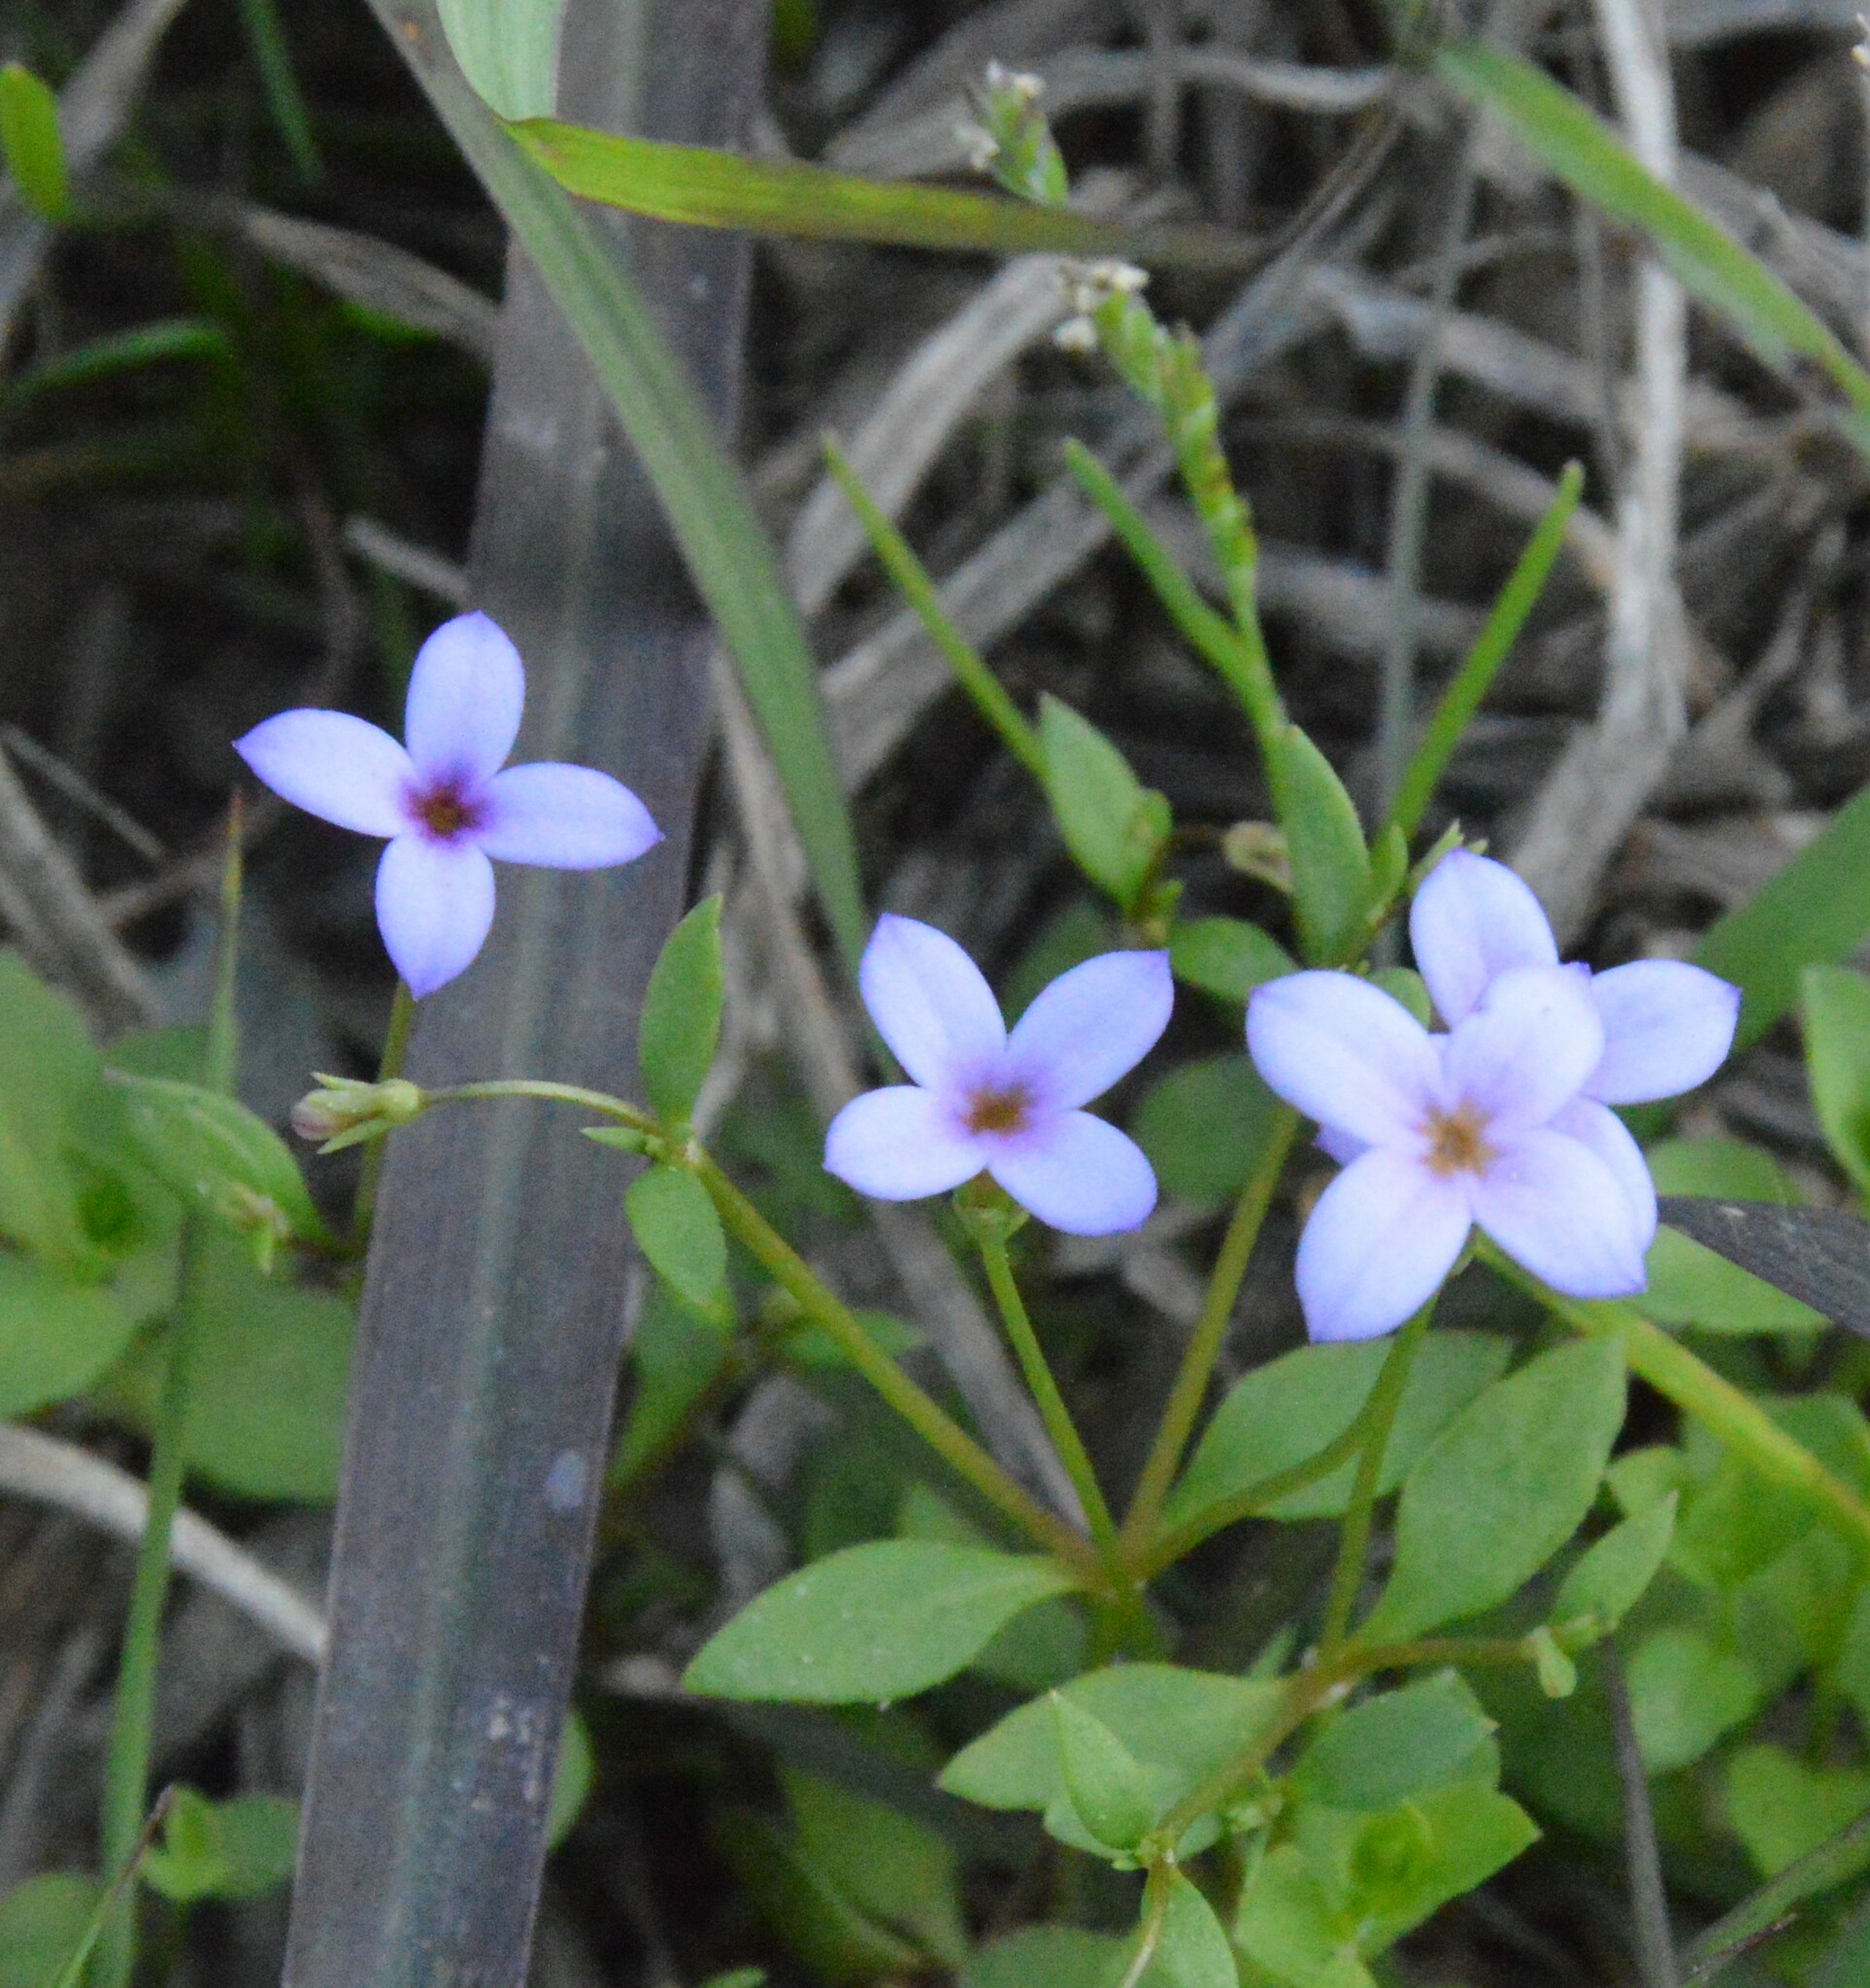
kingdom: Plantae
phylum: Tracheophyta
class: Magnoliopsida
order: Gentianales
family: Rubiaceae
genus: Houstonia
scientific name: Houstonia pusilla
